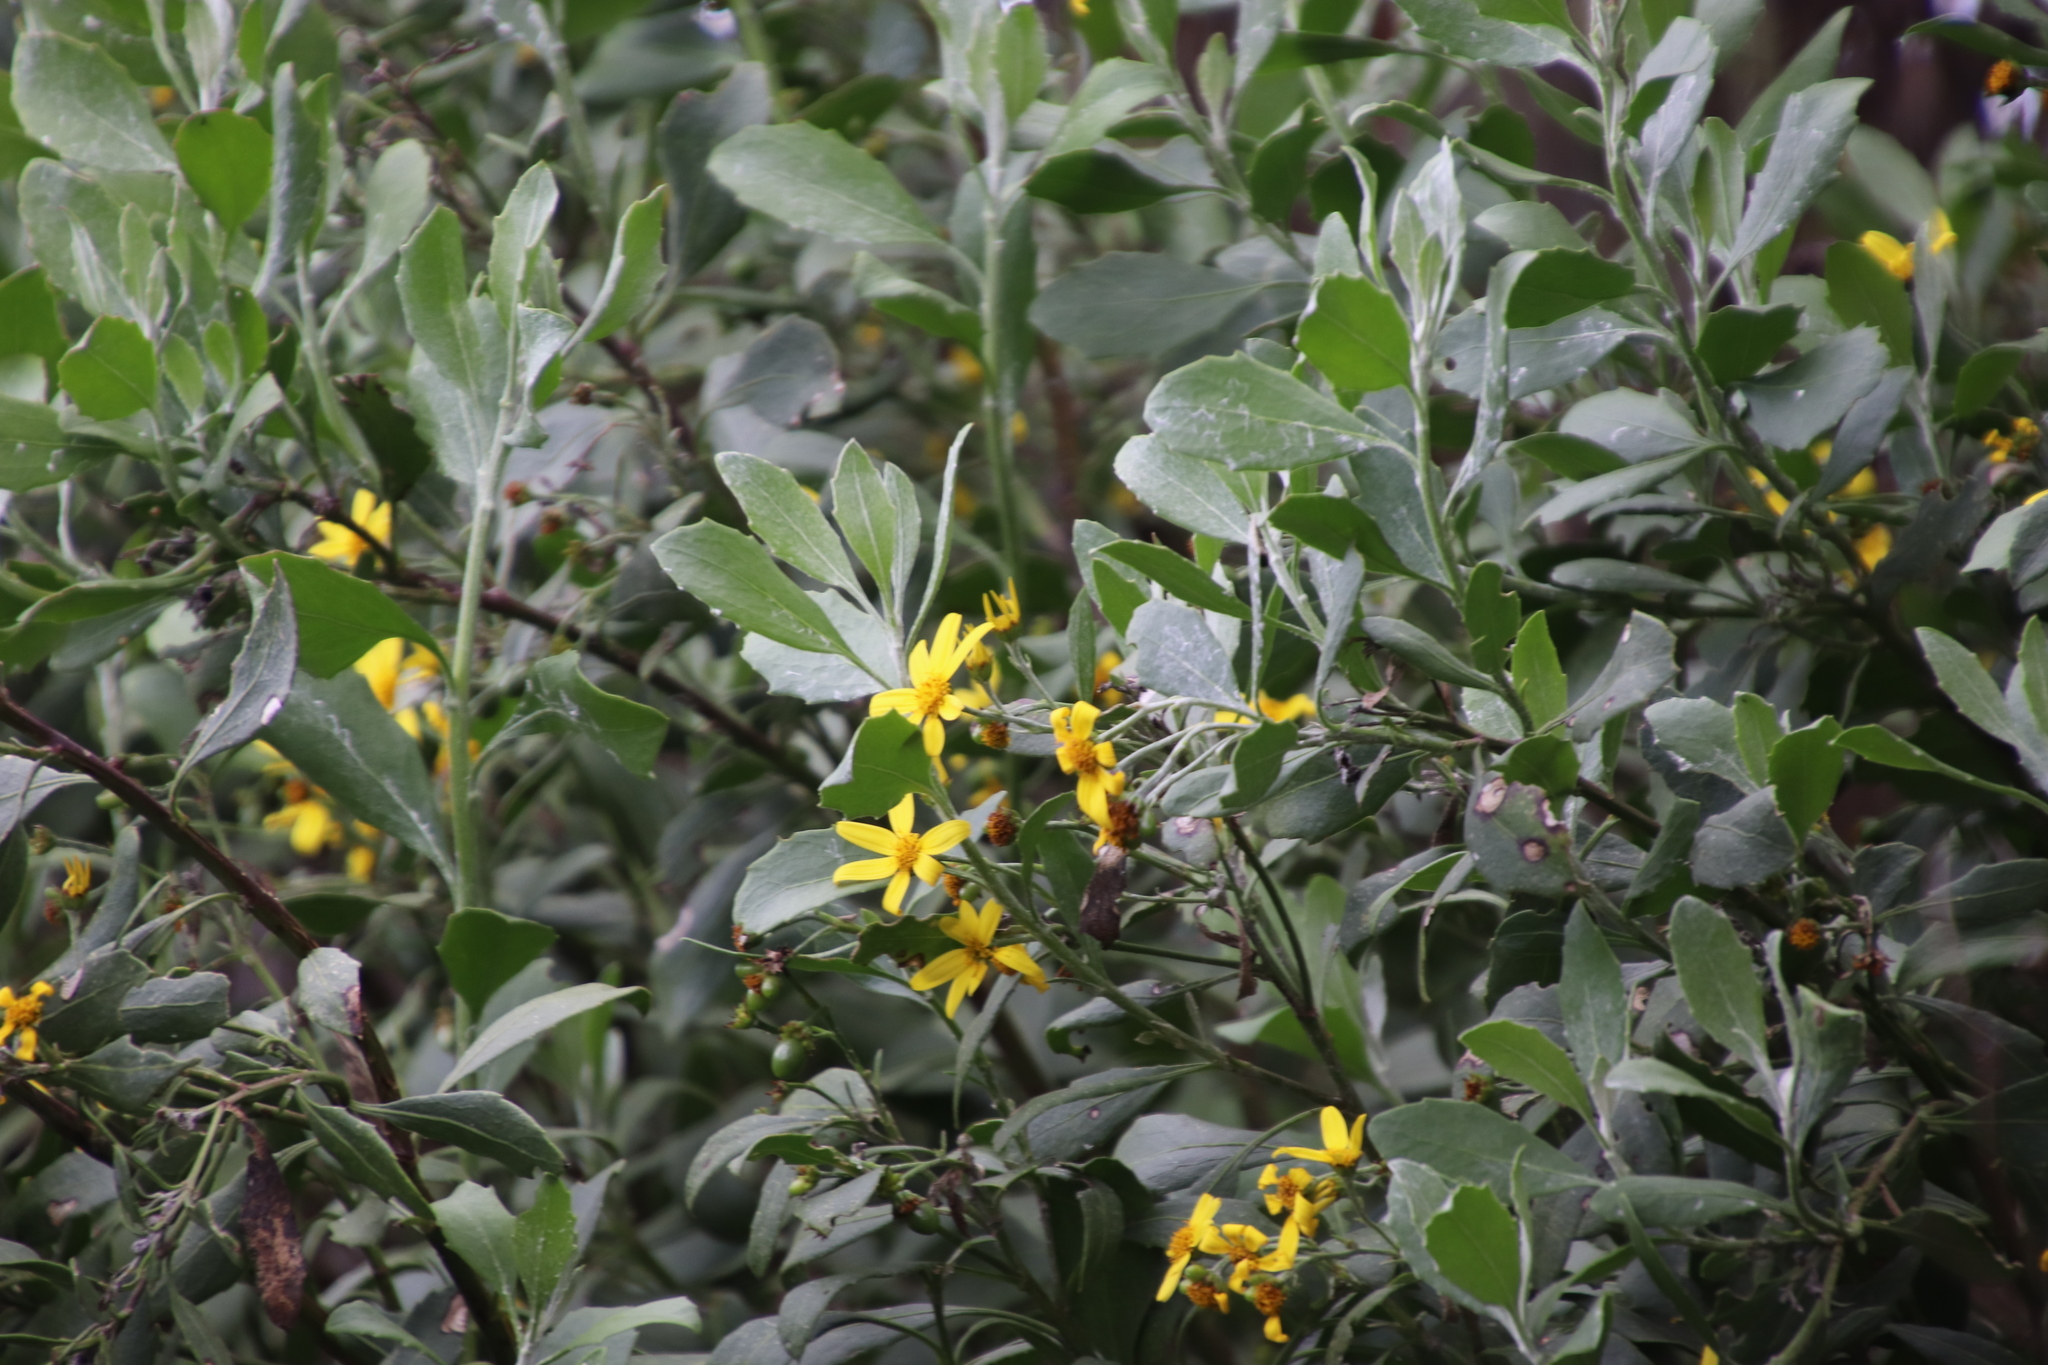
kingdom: Plantae
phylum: Tracheophyta
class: Magnoliopsida
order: Asterales
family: Asteraceae
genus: Osteospermum
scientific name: Osteospermum moniliferum
